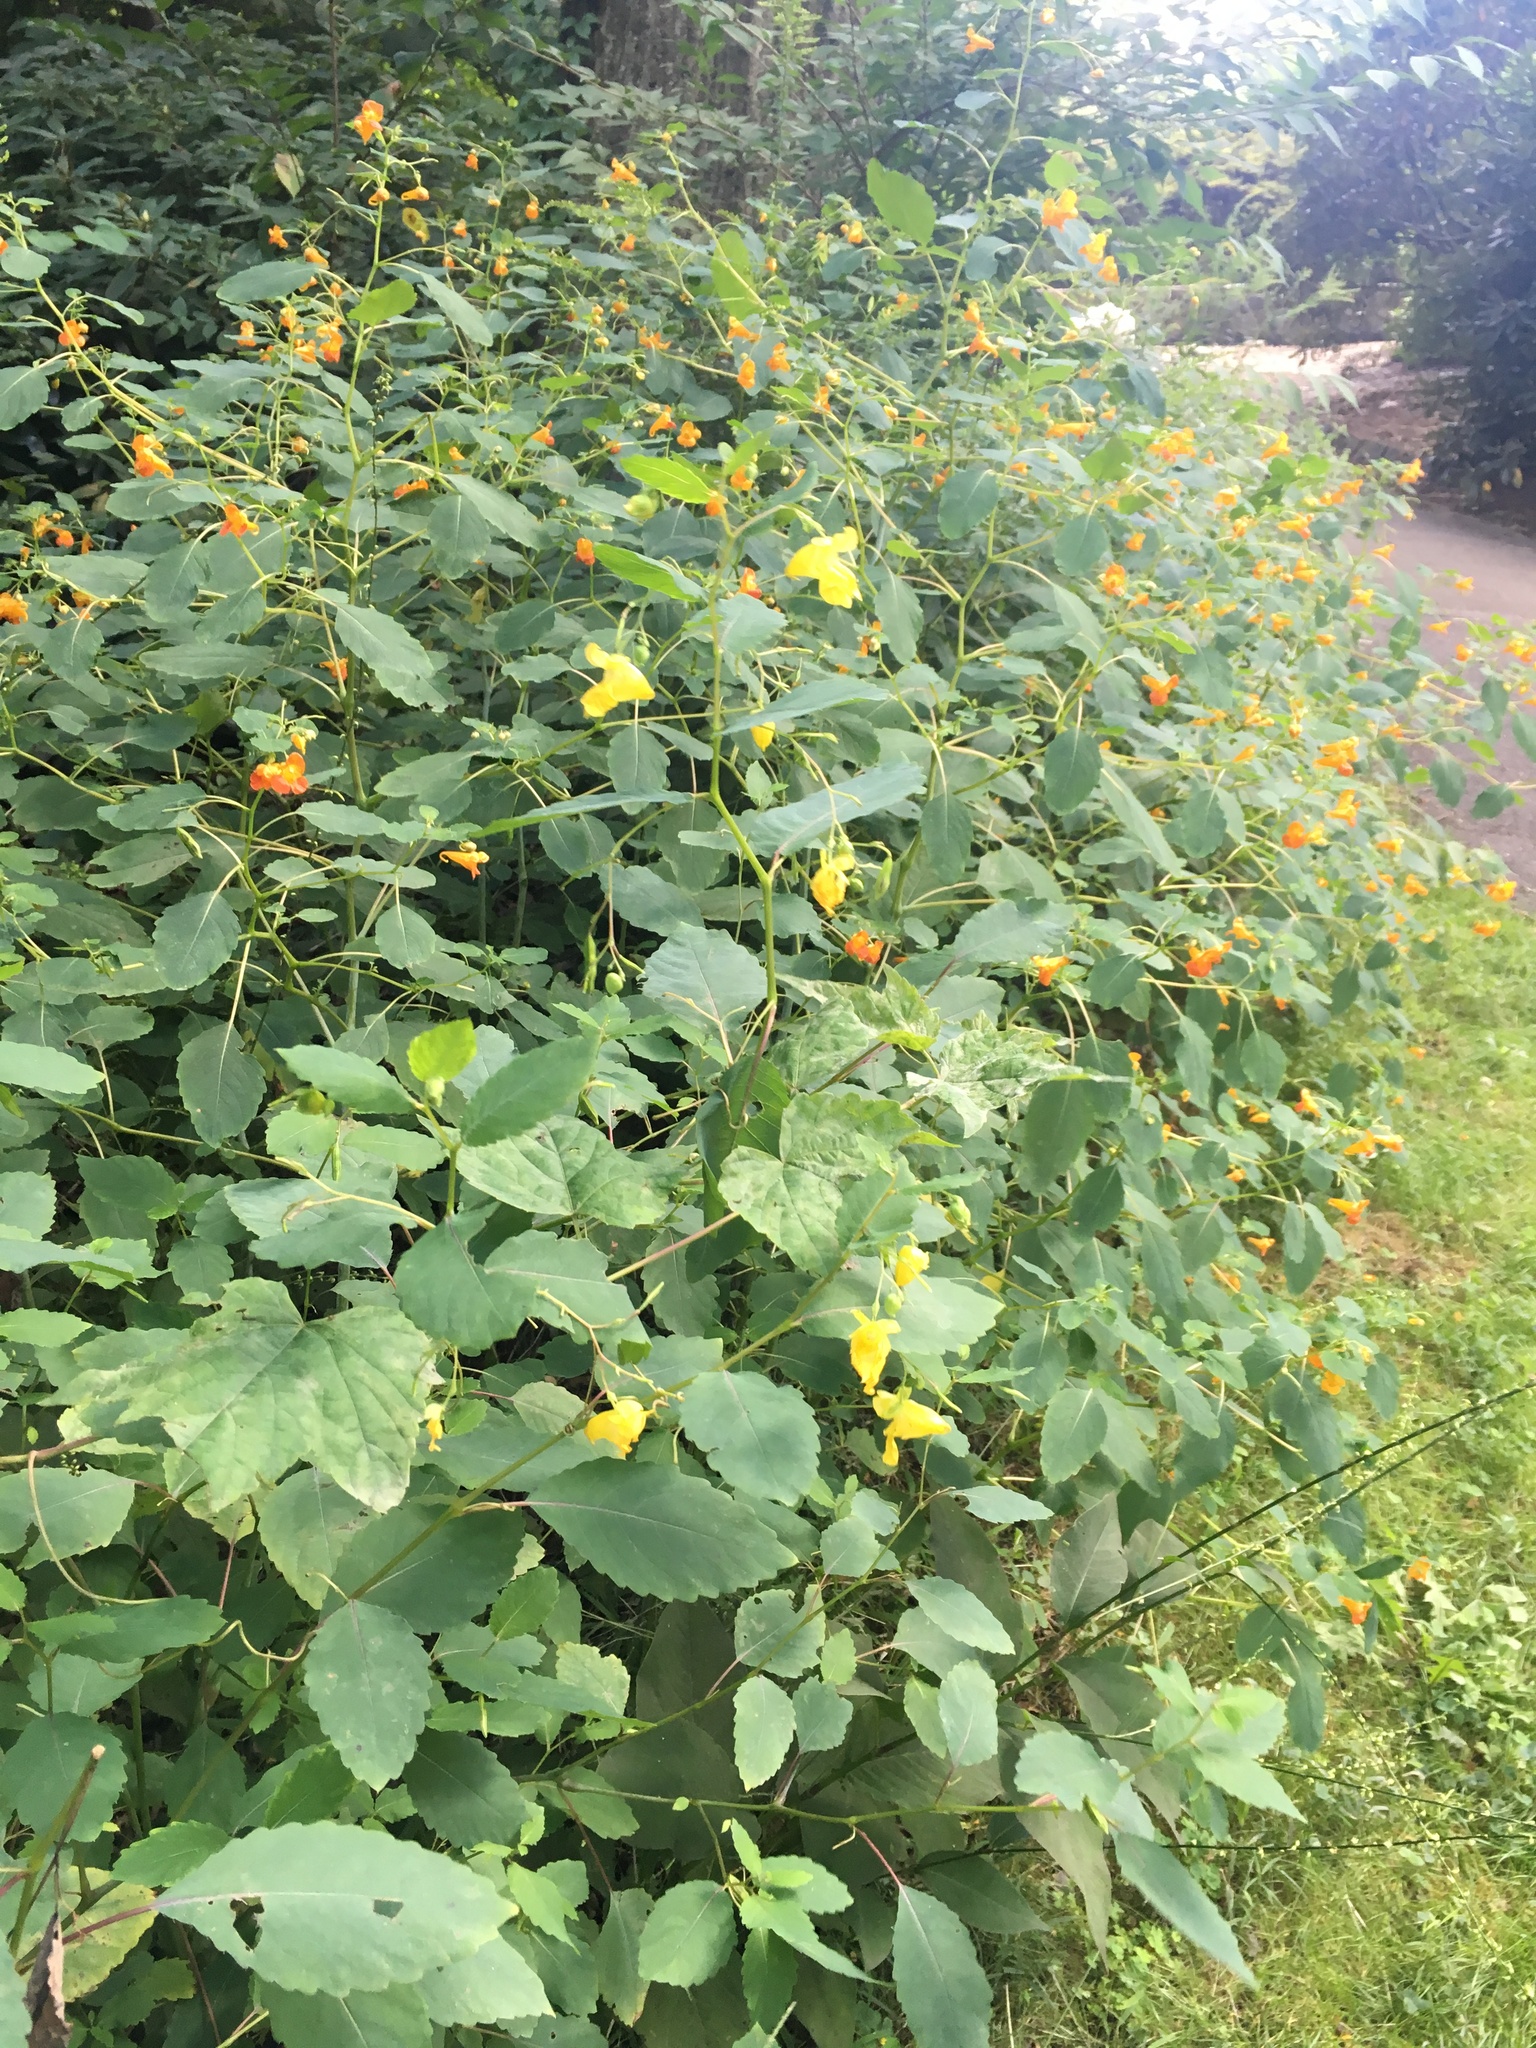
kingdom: Plantae
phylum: Tracheophyta
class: Magnoliopsida
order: Ericales
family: Balsaminaceae
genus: Impatiens
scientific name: Impatiens capensis
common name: Orange balsam
